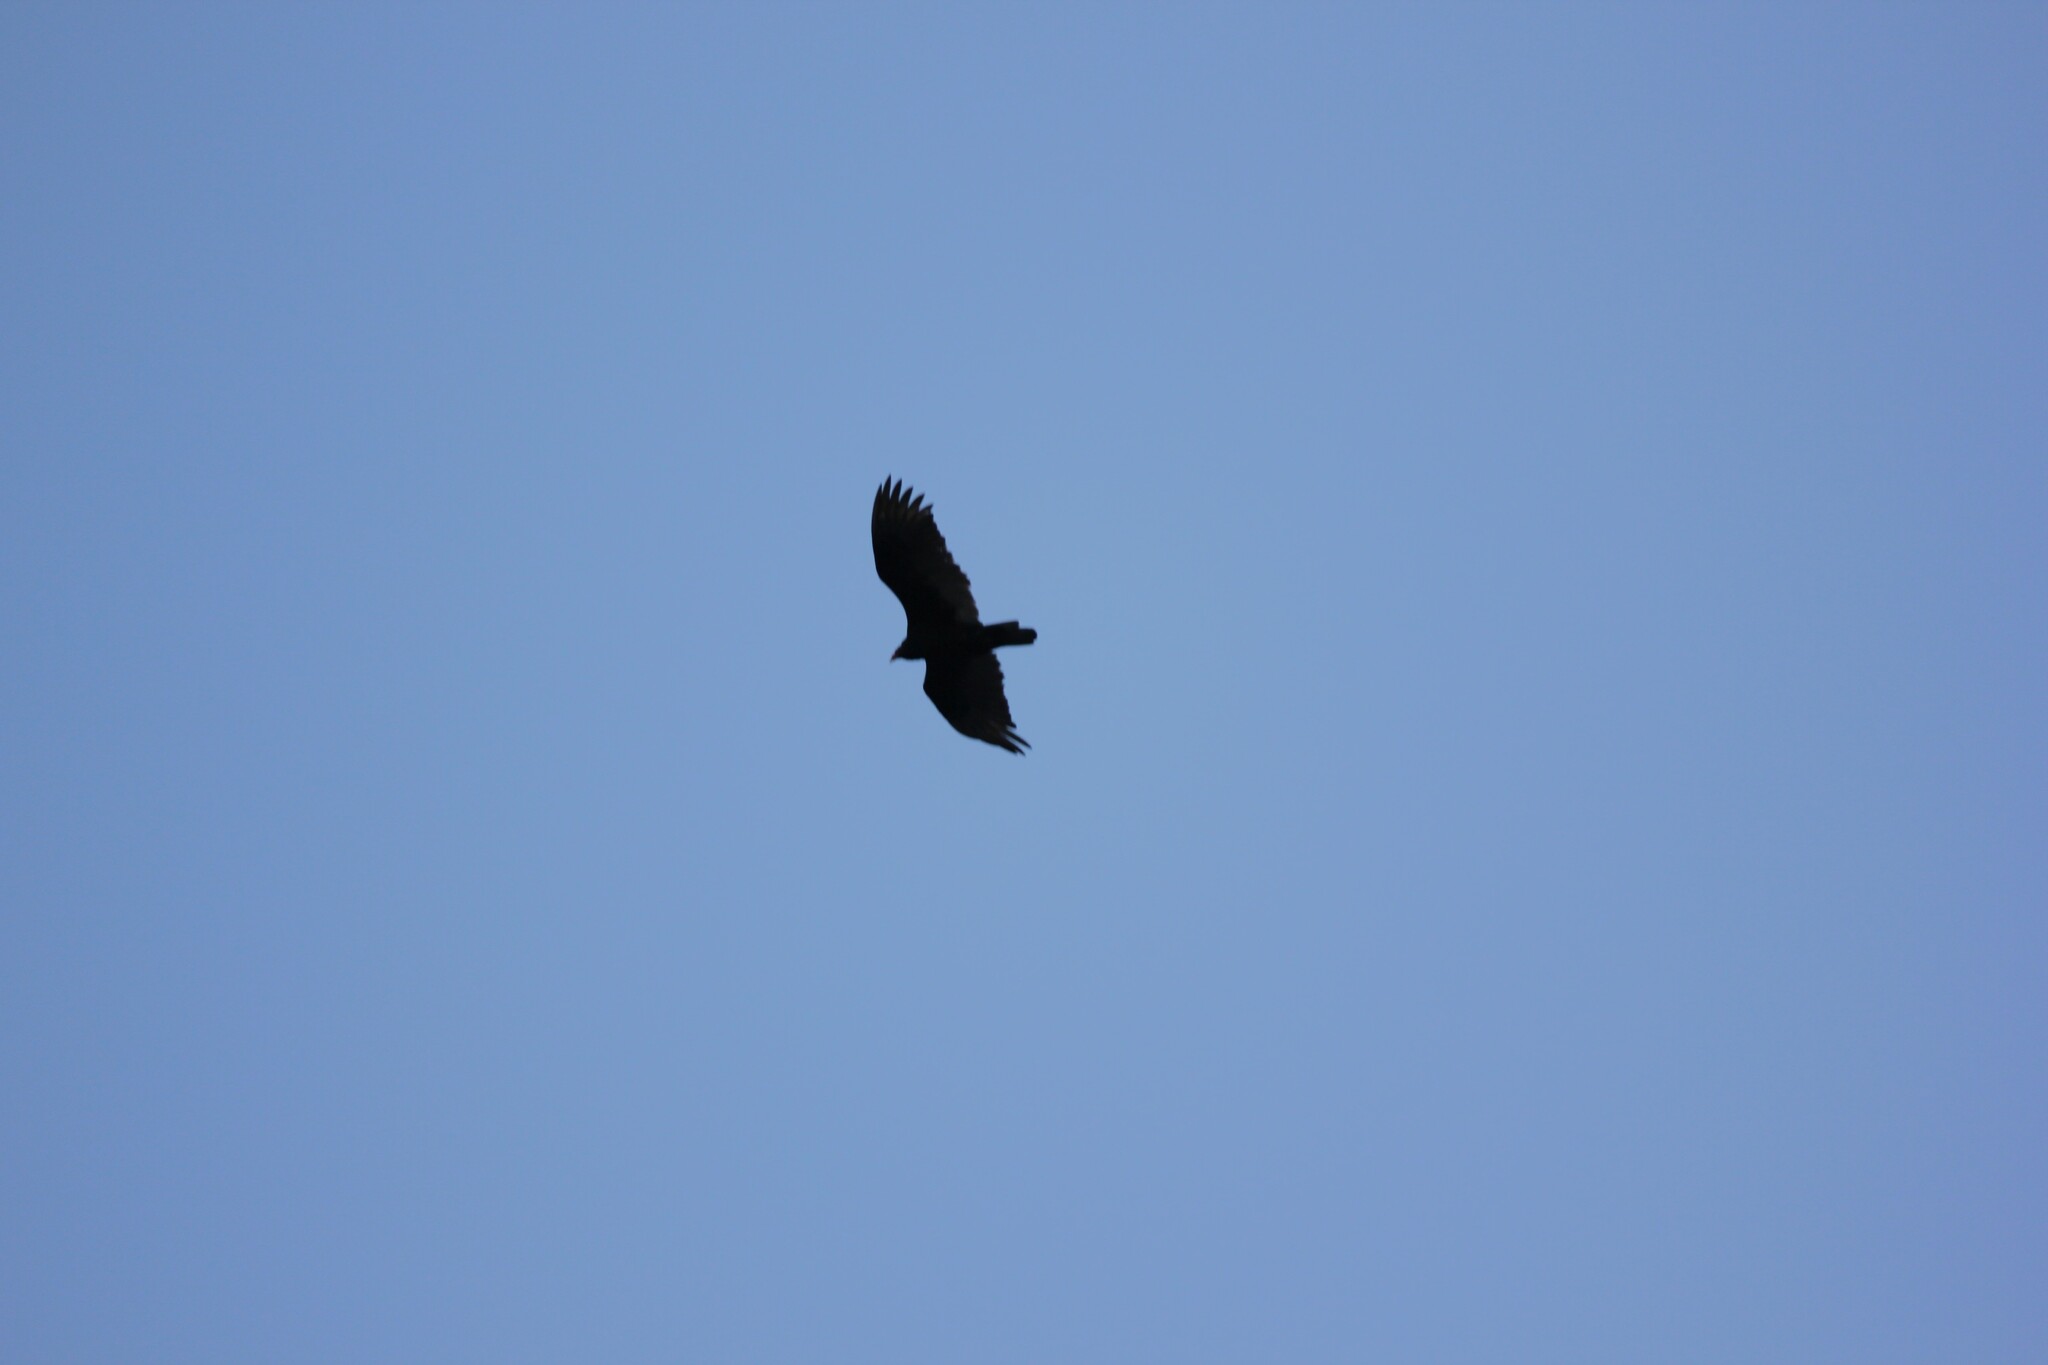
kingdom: Animalia
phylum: Chordata
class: Aves
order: Accipitriformes
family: Cathartidae
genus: Cathartes
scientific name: Cathartes aura
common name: Turkey vulture
